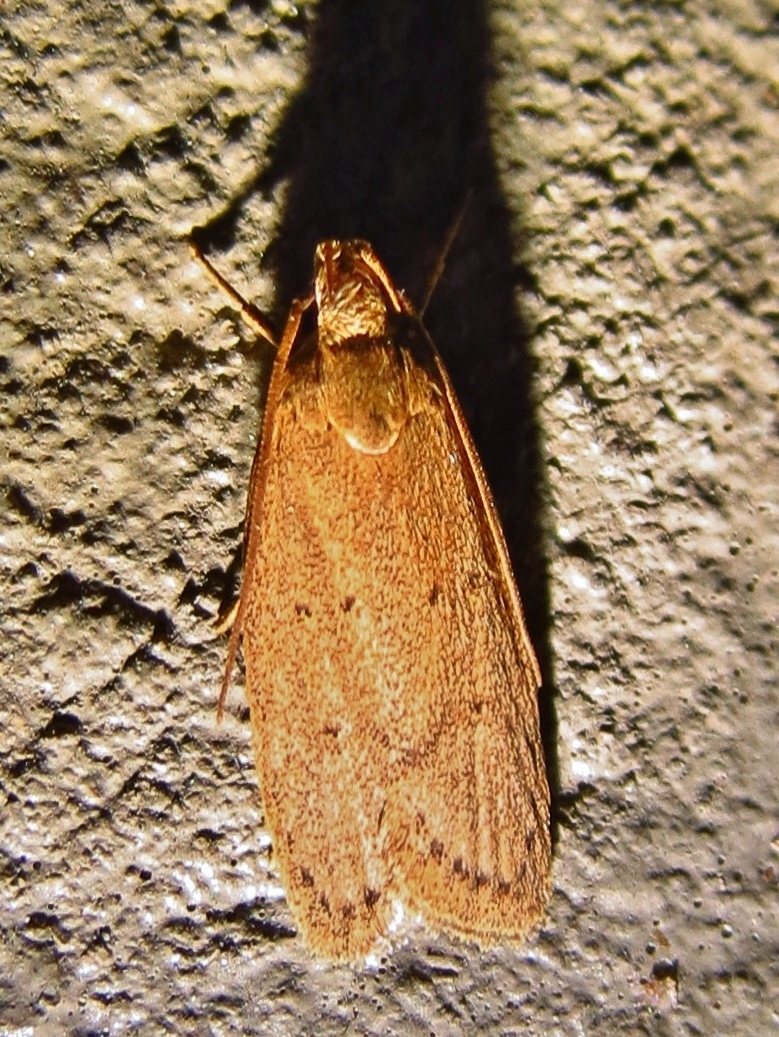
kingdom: Animalia
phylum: Arthropoda
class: Insecta
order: Lepidoptera
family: Autostichidae
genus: Autosticha
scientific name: Autosticha kyotensis
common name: Kyoto moth
